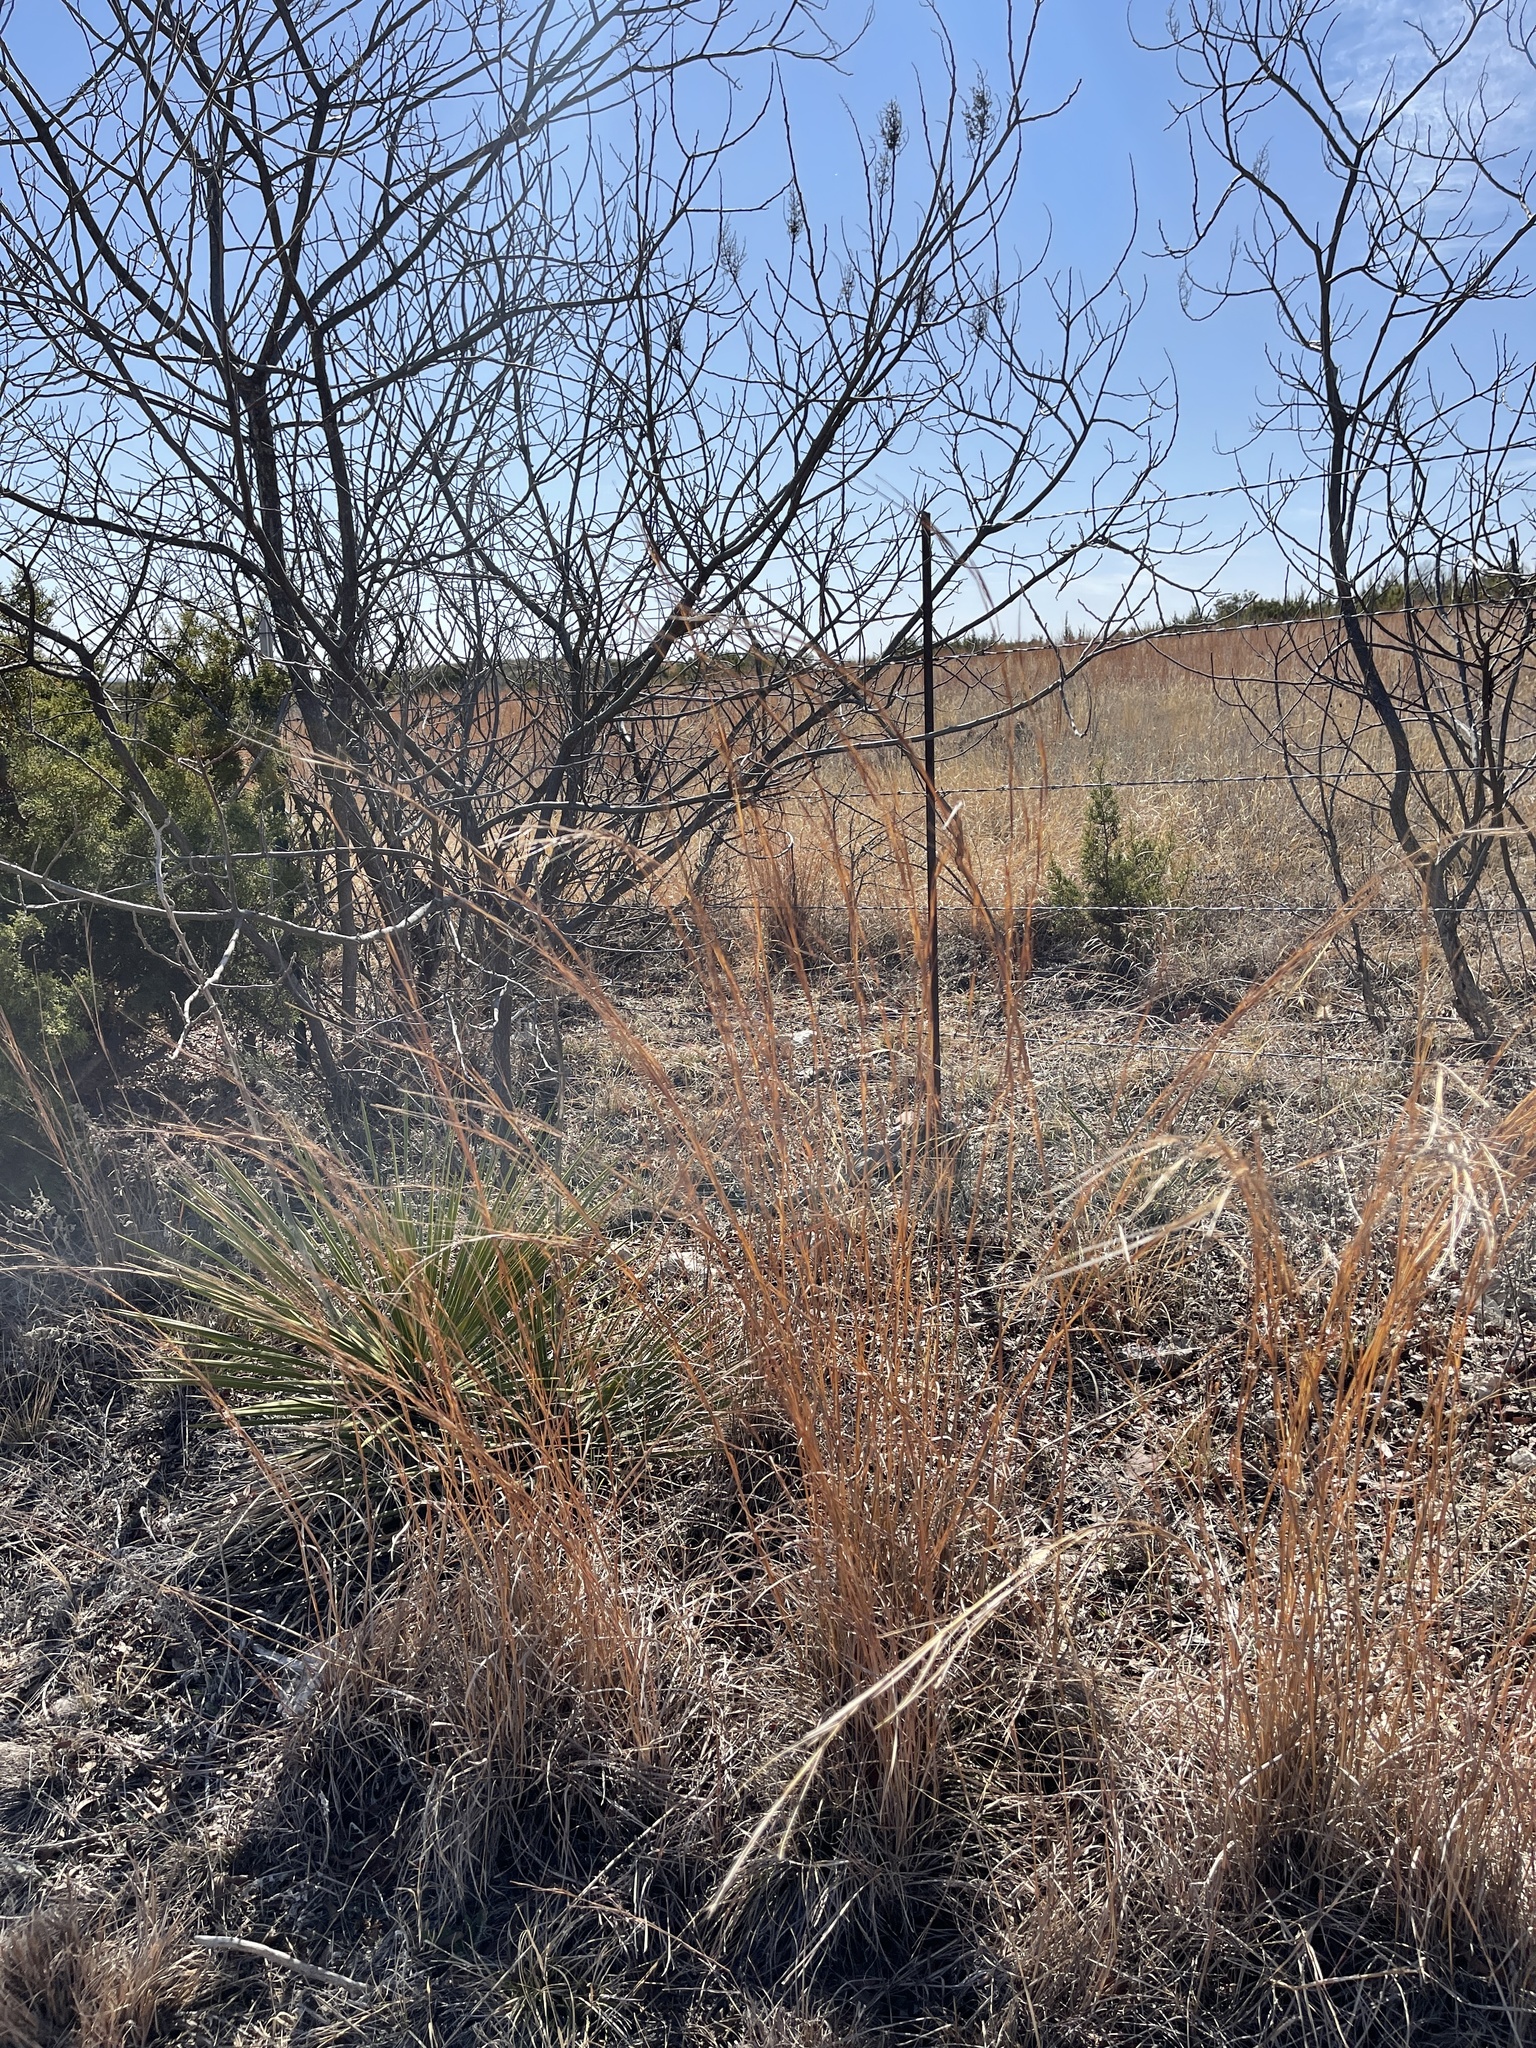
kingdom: Plantae
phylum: Tracheophyta
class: Liliopsida
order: Poales
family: Poaceae
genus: Schizachyrium
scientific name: Schizachyrium scoparium
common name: Little bluestem
